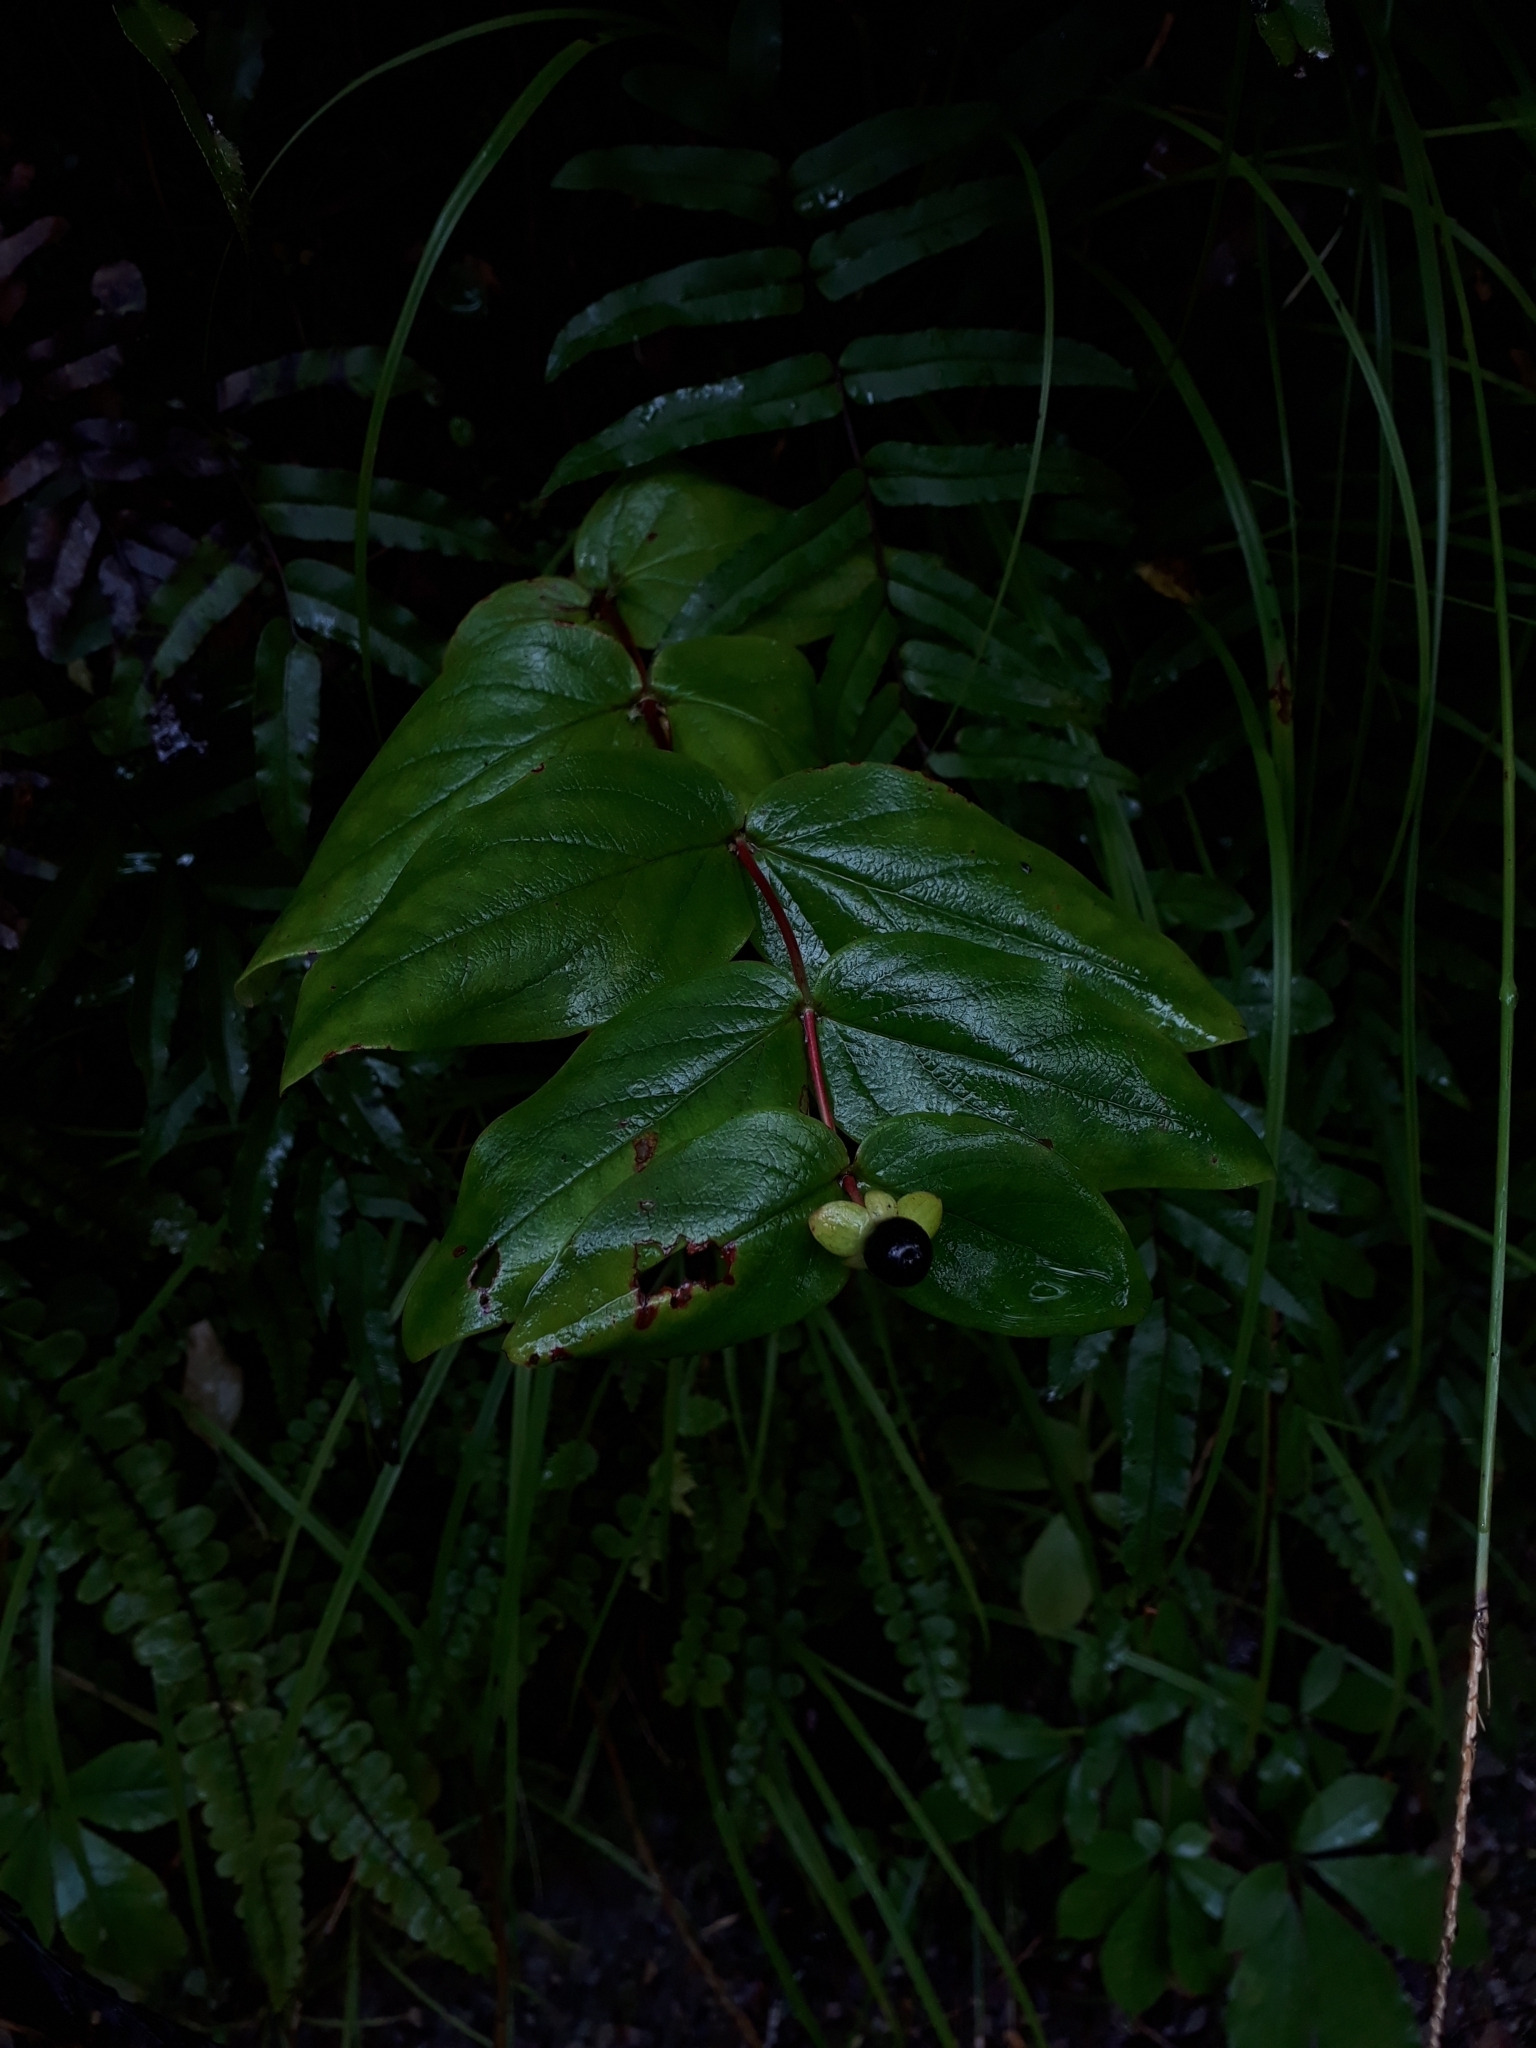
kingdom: Plantae
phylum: Tracheophyta
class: Magnoliopsida
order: Malpighiales
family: Hypericaceae
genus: Hypericum
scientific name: Hypericum androsaemum
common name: Sweet-amber
